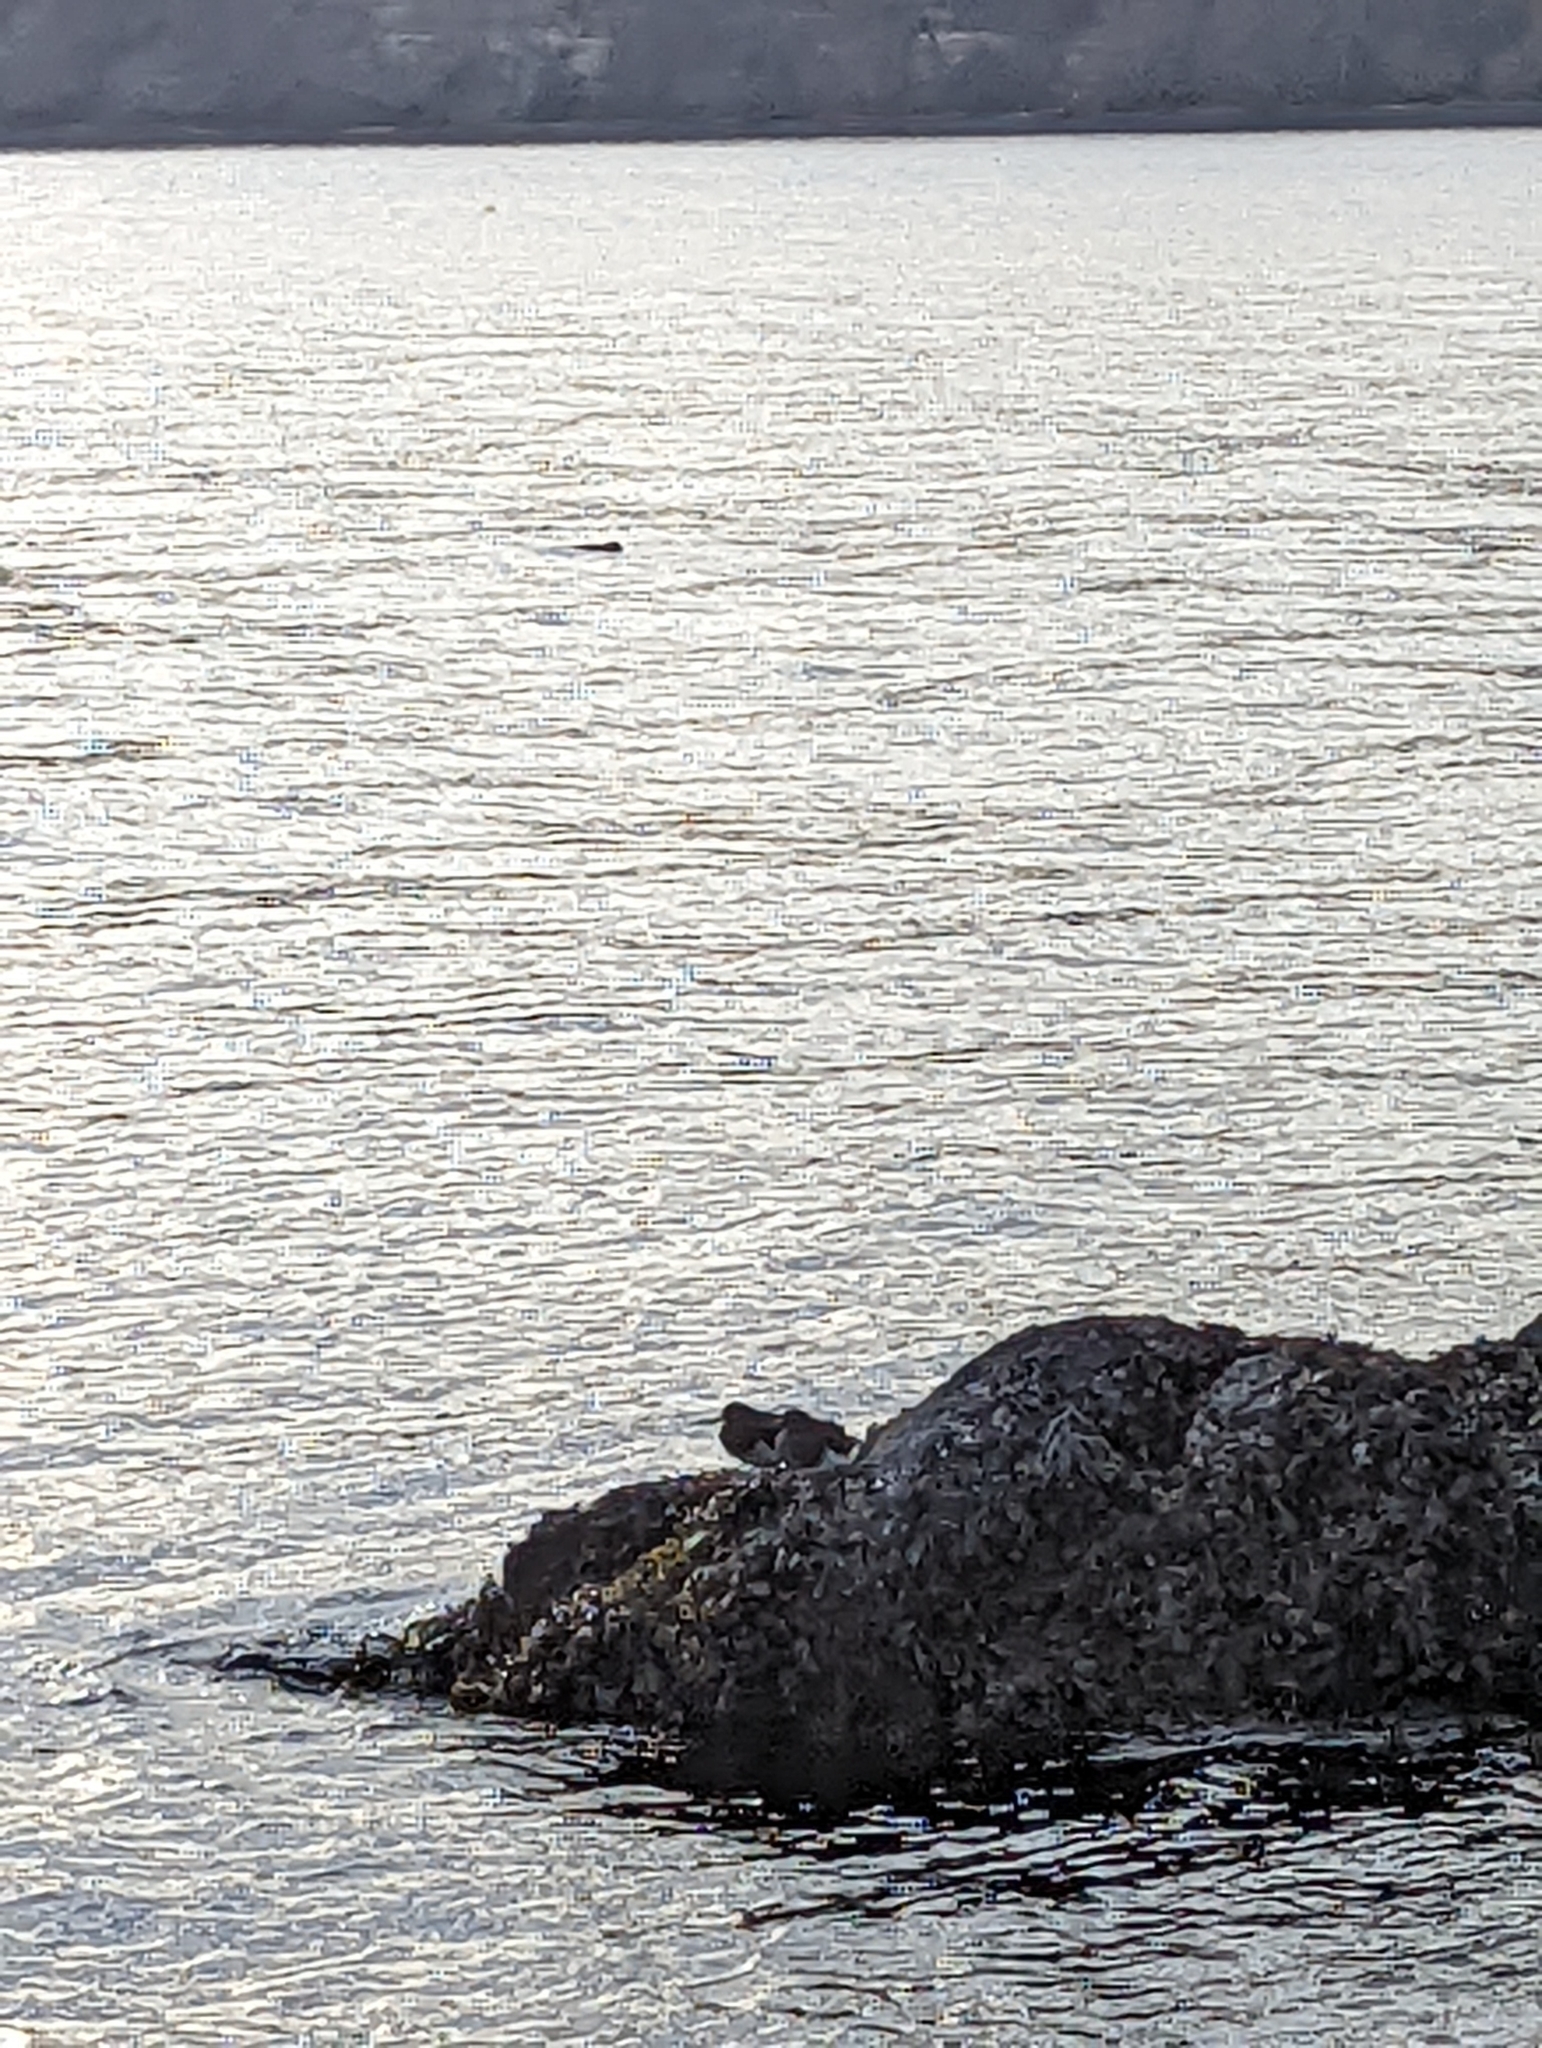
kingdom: Animalia
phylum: Chordata
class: Aves
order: Charadriiformes
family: Scolopacidae
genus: Arenaria
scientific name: Arenaria melanocephala
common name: Black turnstone
